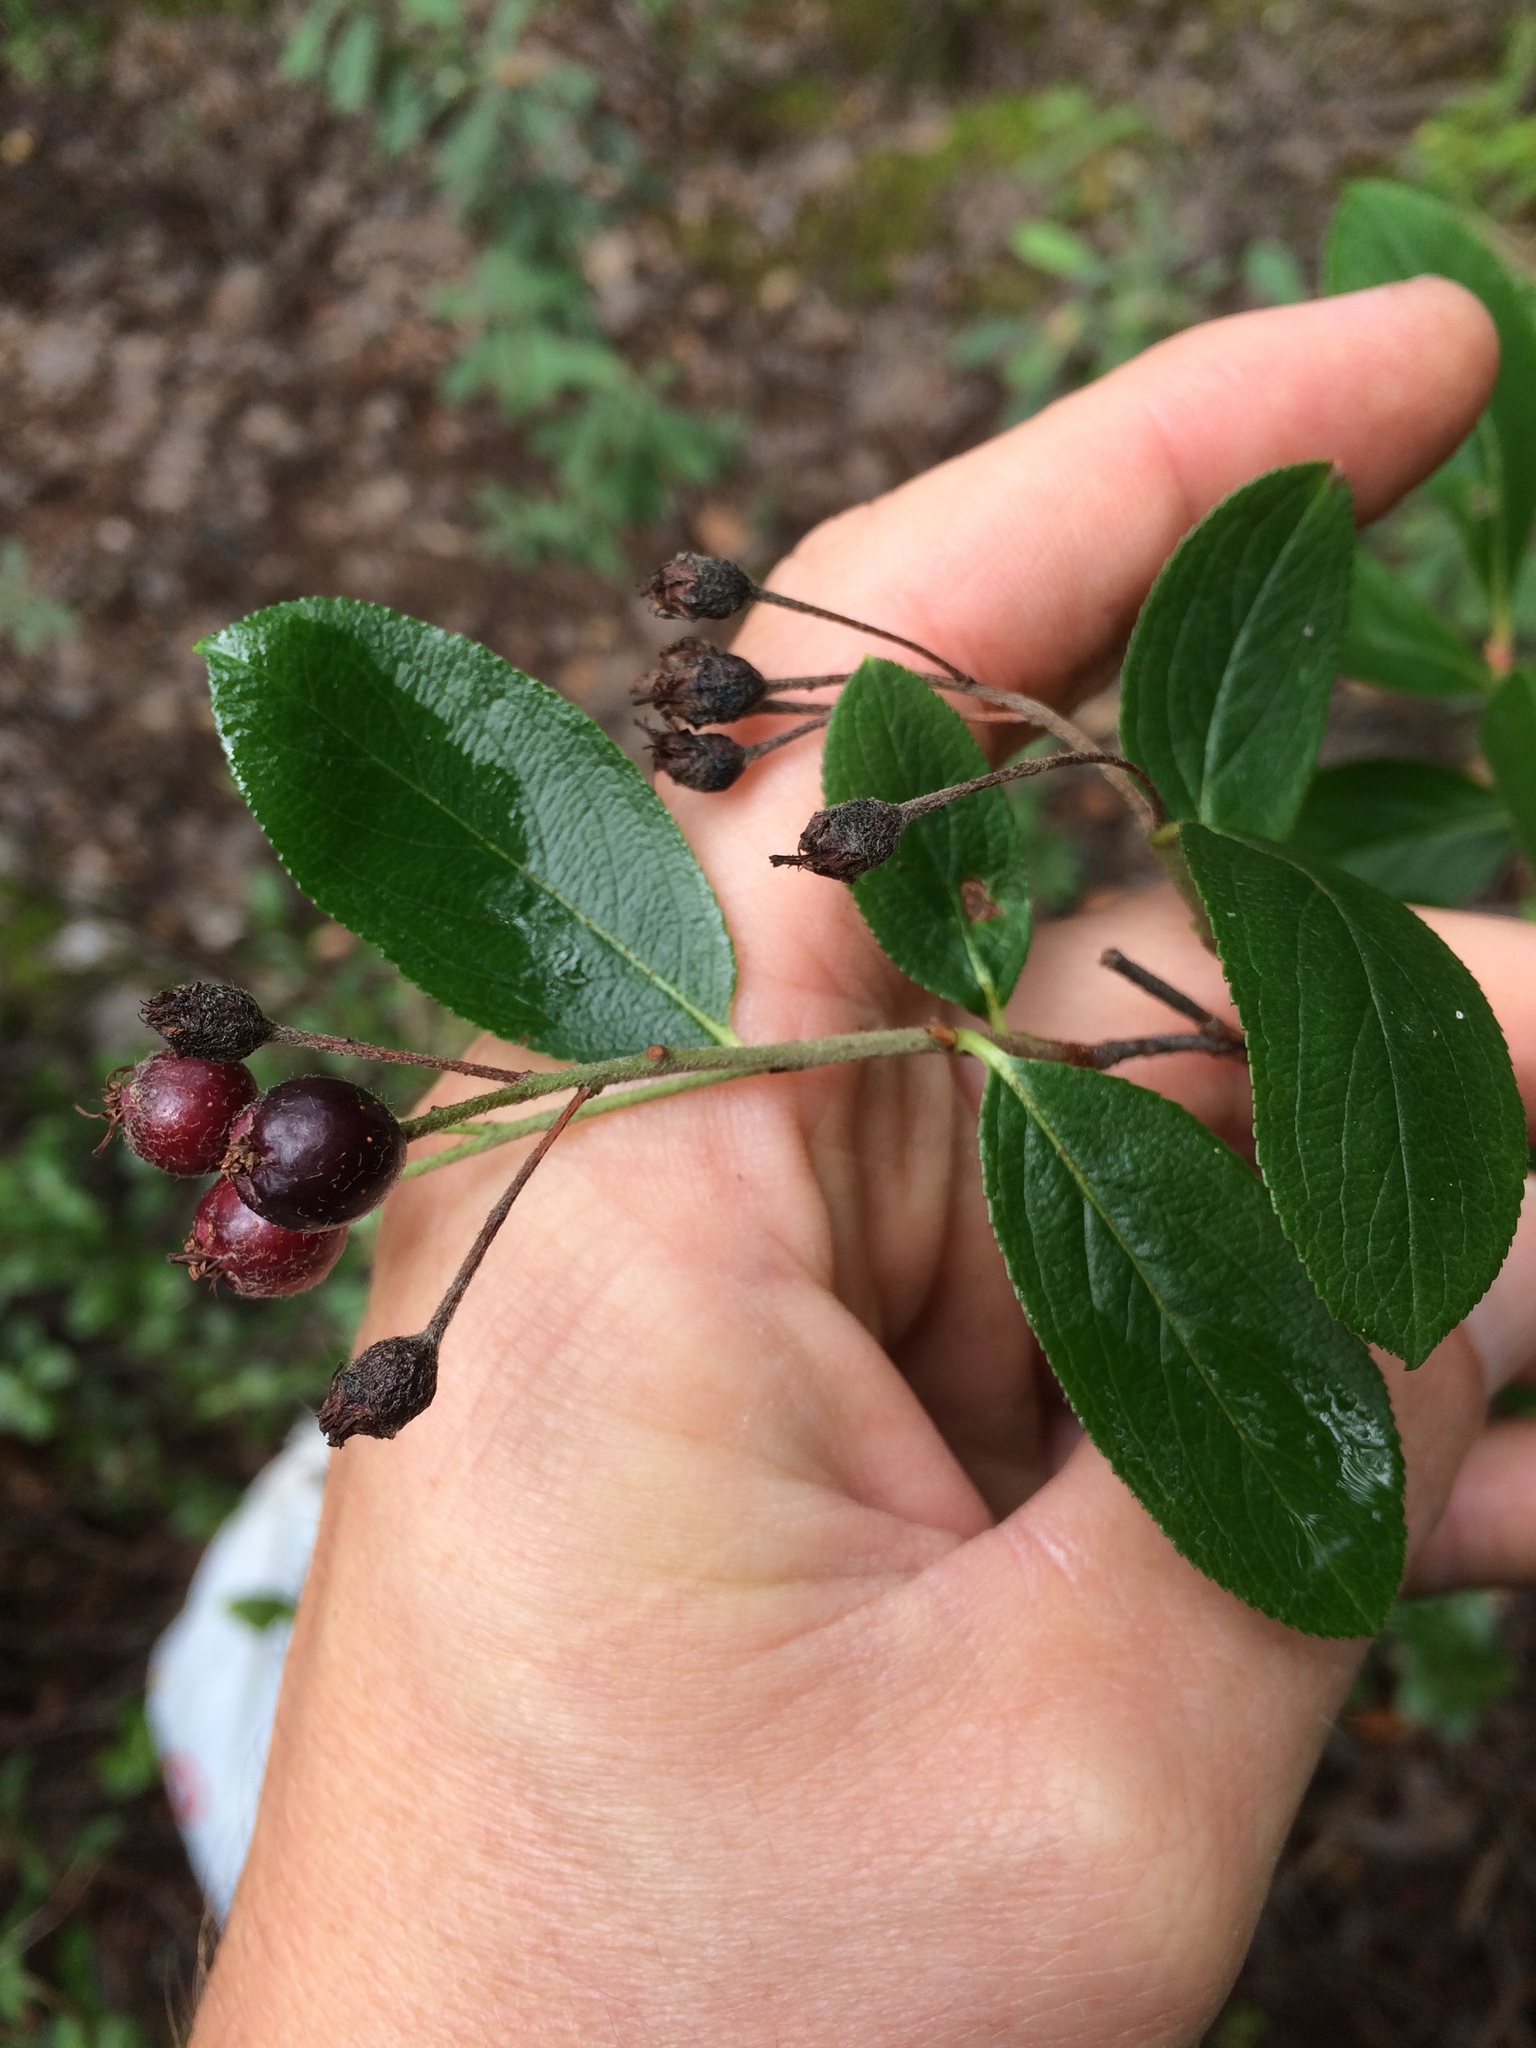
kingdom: Plantae
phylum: Tracheophyta
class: Magnoliopsida
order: Rosales
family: Rosaceae
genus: Aronia
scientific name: Aronia prunifolia
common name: Purple chokeberry
